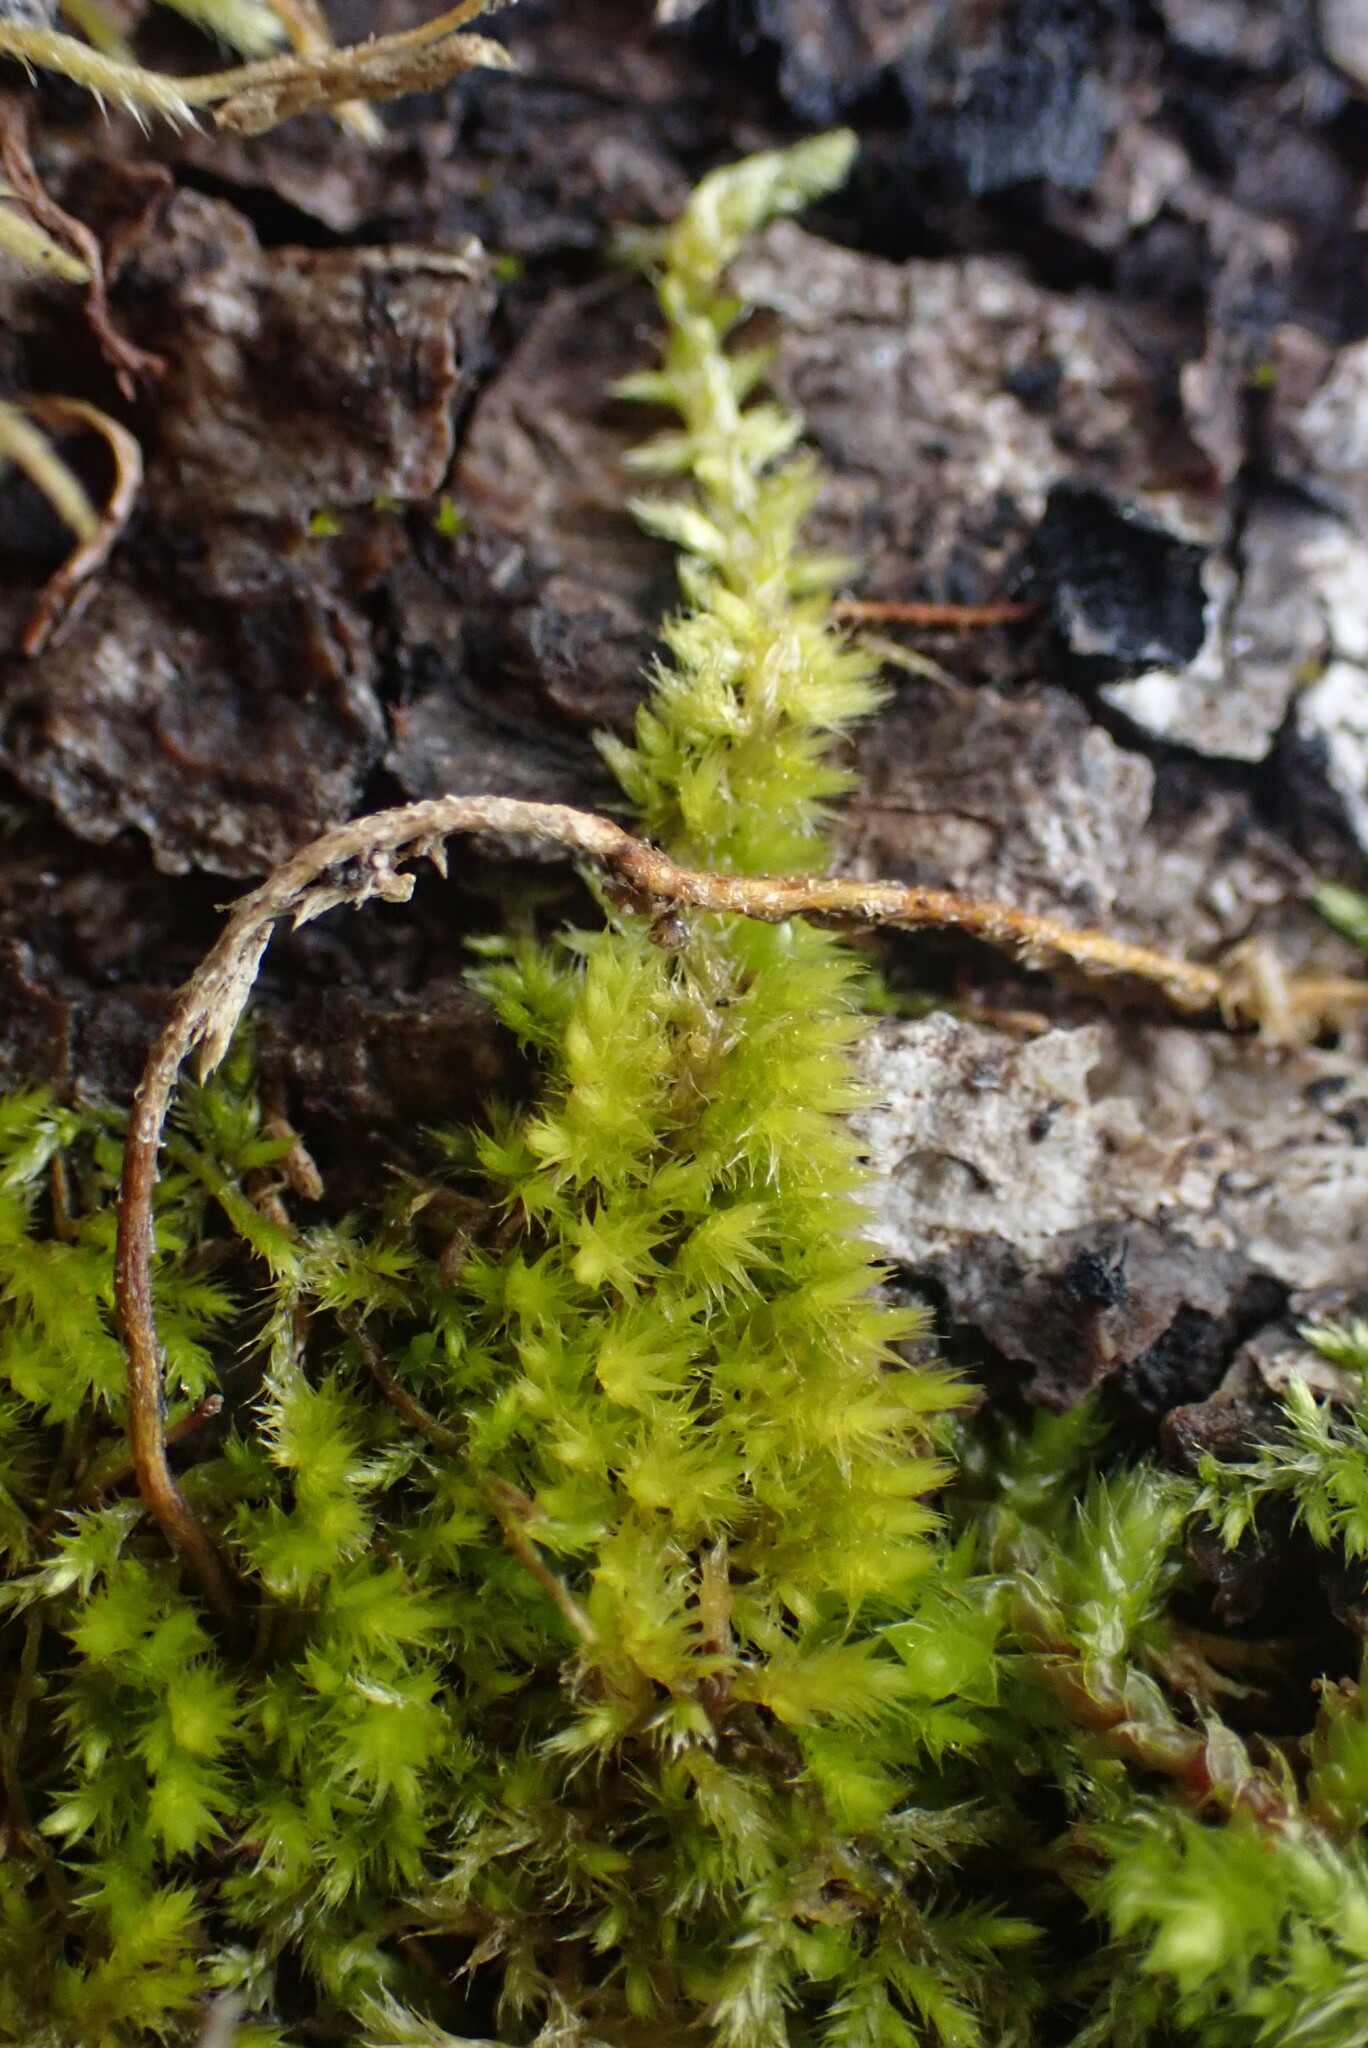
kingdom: Plantae
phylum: Bryophyta
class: Bryopsida
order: Hypnales
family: Brachytheciaceae
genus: Homalothecium
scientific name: Homalothecium nuttallii
